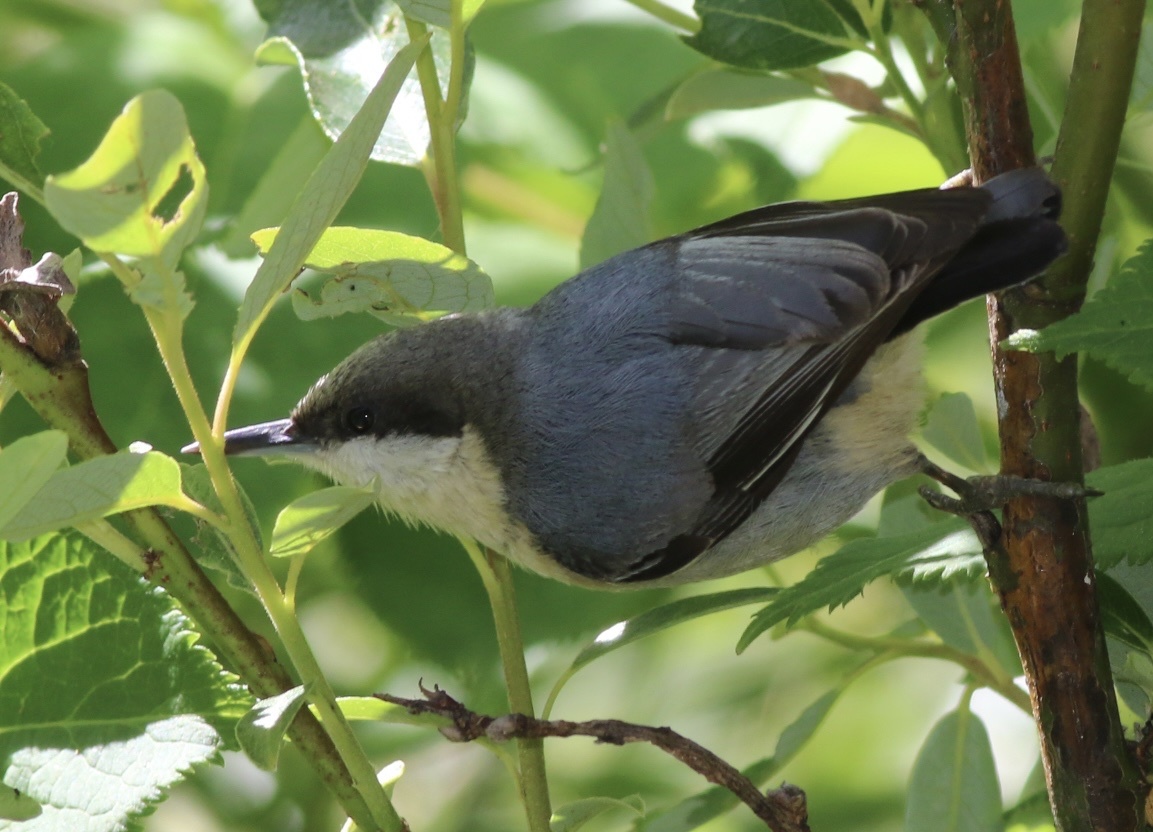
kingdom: Animalia
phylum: Chordata
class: Aves
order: Passeriformes
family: Sittidae
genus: Sitta
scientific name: Sitta pygmaea
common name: Pygmy nuthatch
